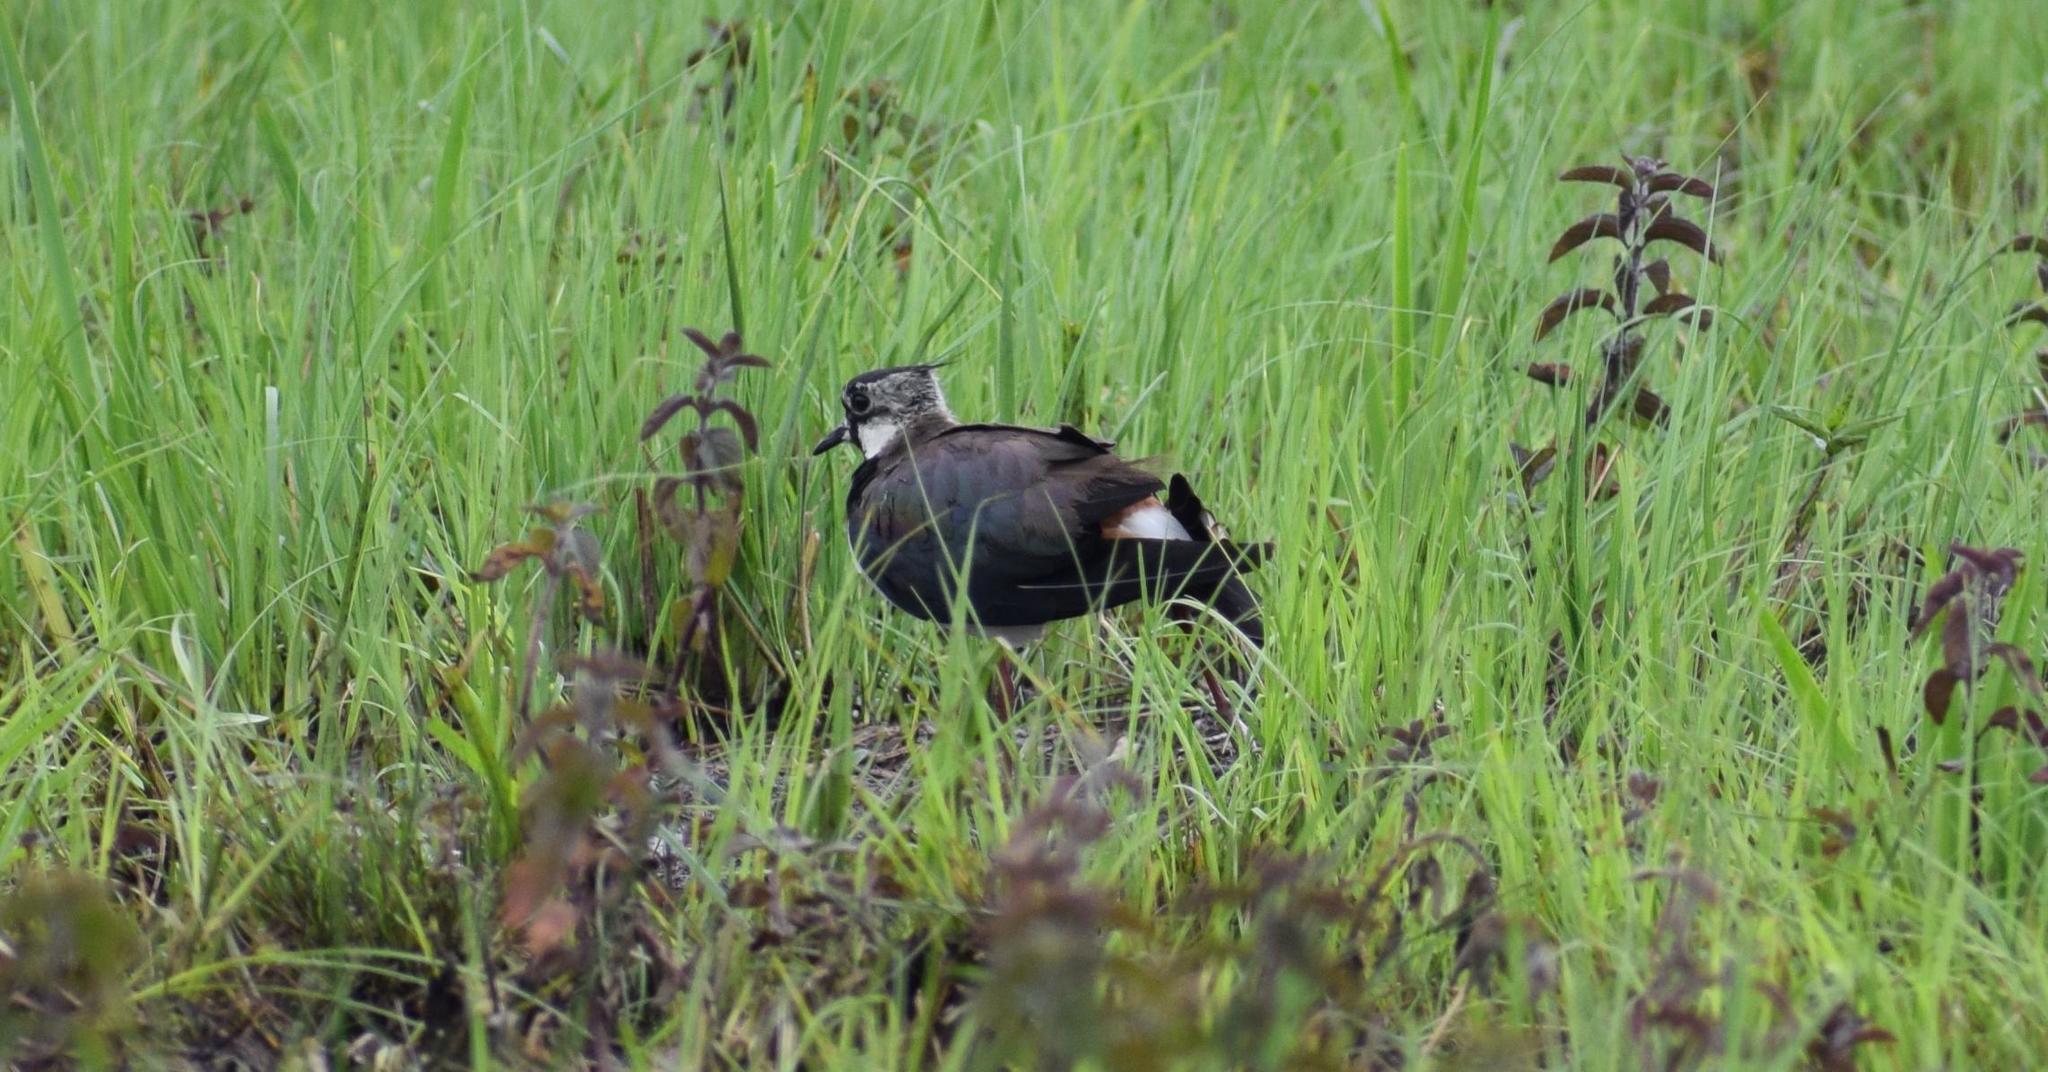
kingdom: Animalia
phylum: Chordata
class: Aves
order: Charadriiformes
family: Charadriidae
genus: Vanellus
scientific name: Vanellus vanellus
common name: Northern lapwing
